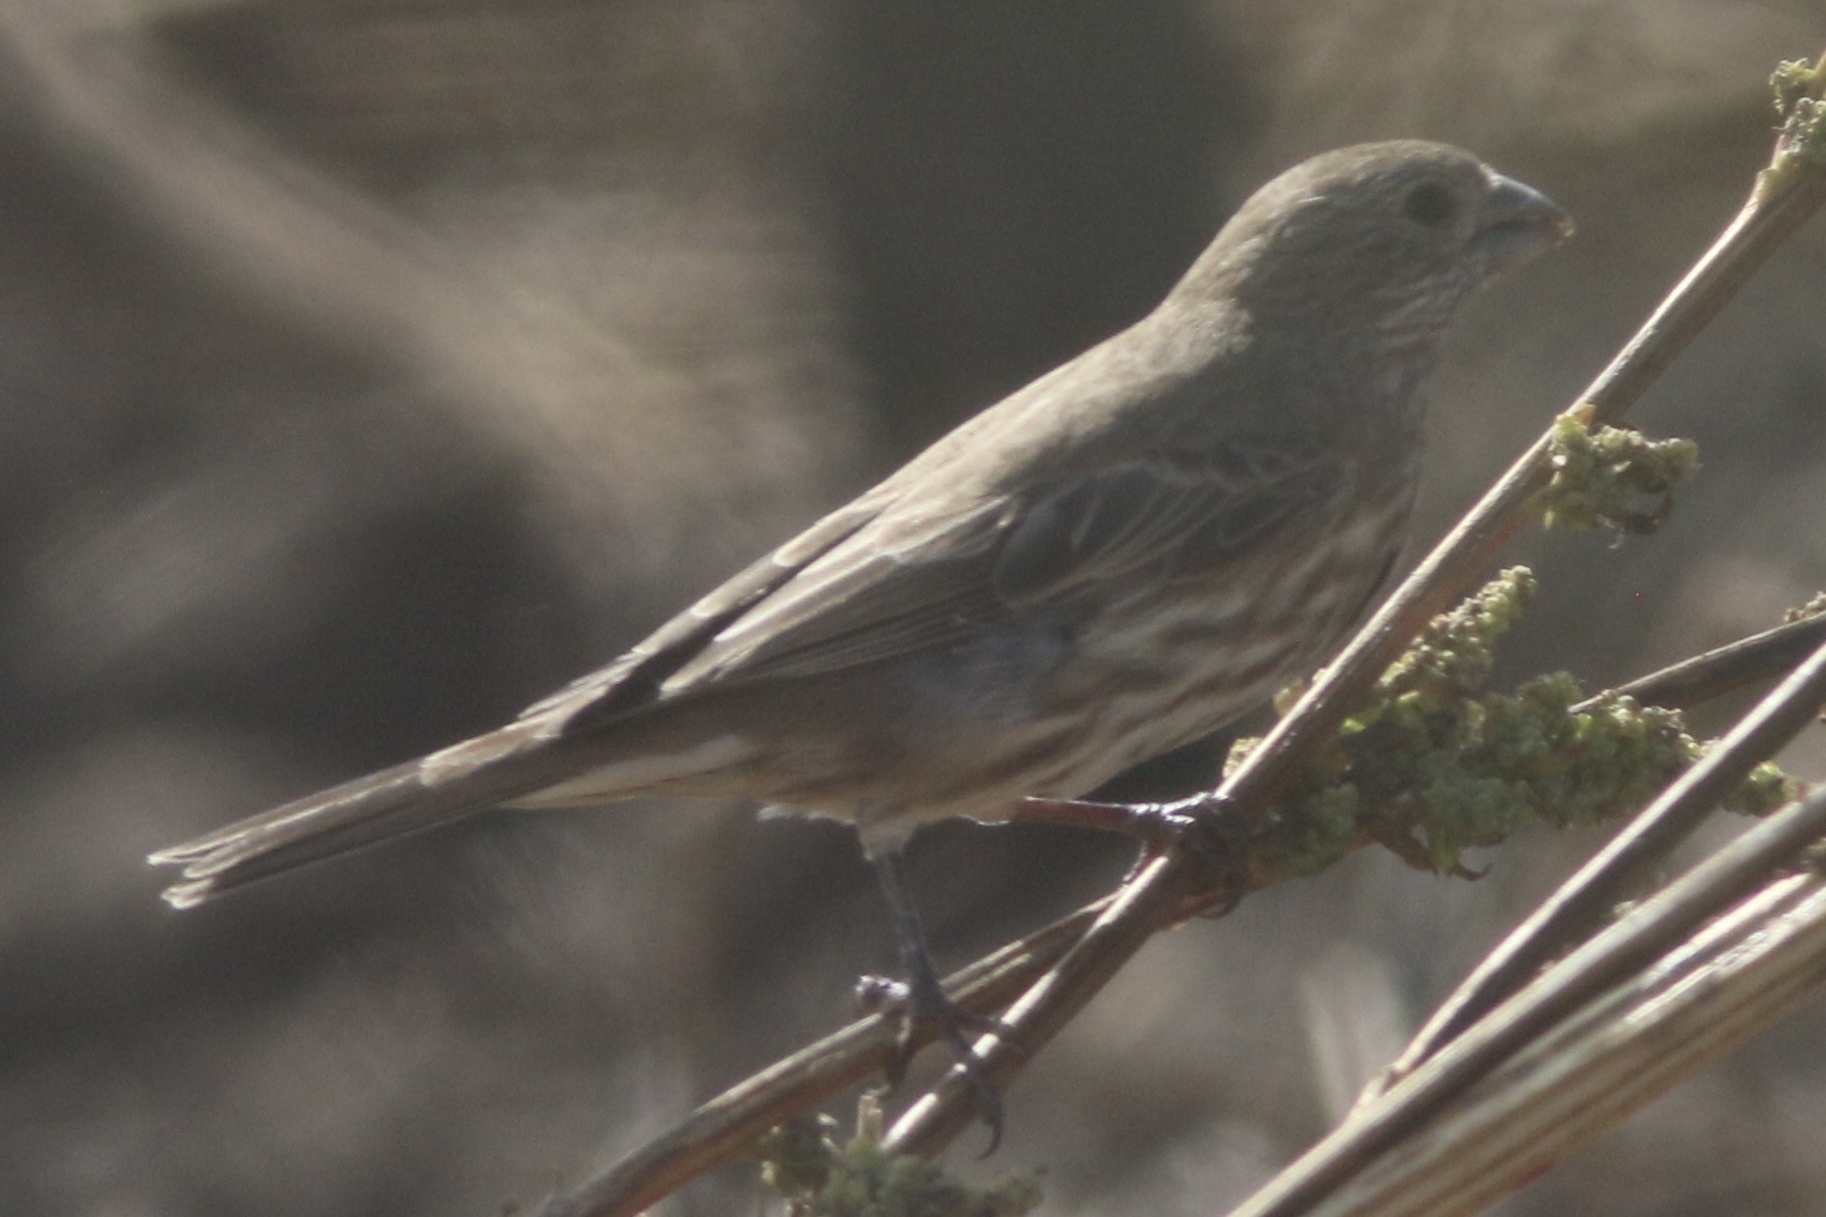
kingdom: Animalia
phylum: Chordata
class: Aves
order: Passeriformes
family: Fringillidae
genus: Haemorhous
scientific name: Haemorhous mexicanus
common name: House finch
